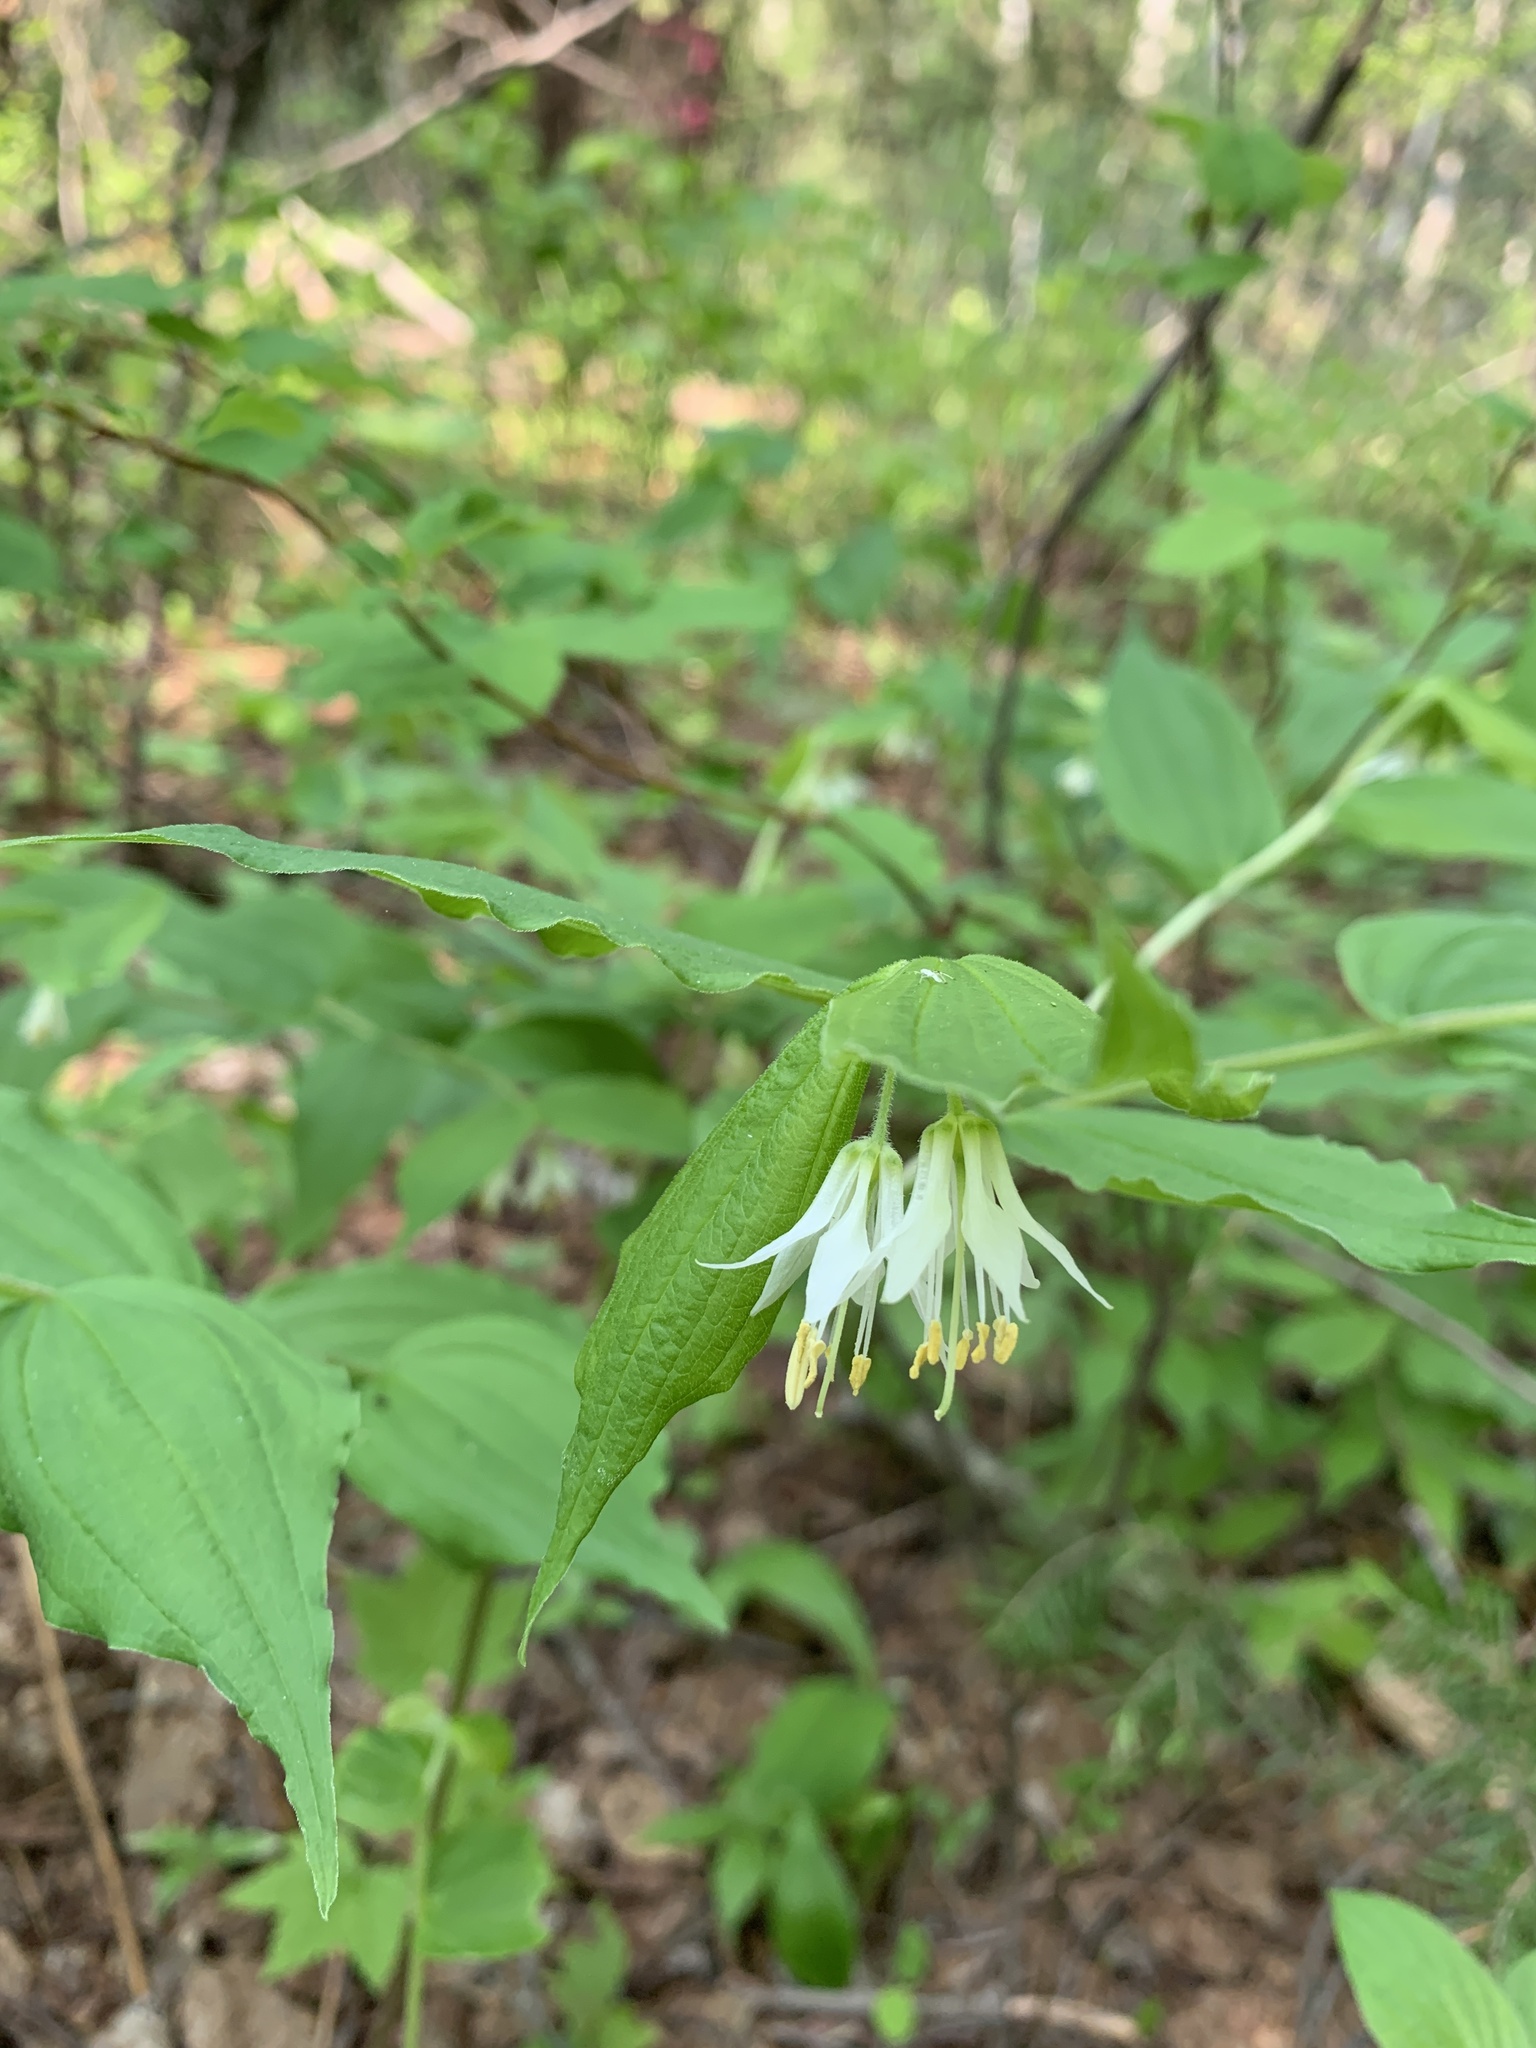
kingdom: Plantae
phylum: Tracheophyta
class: Liliopsida
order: Liliales
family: Liliaceae
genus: Prosartes
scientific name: Prosartes hookeri
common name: Fairy-bells
